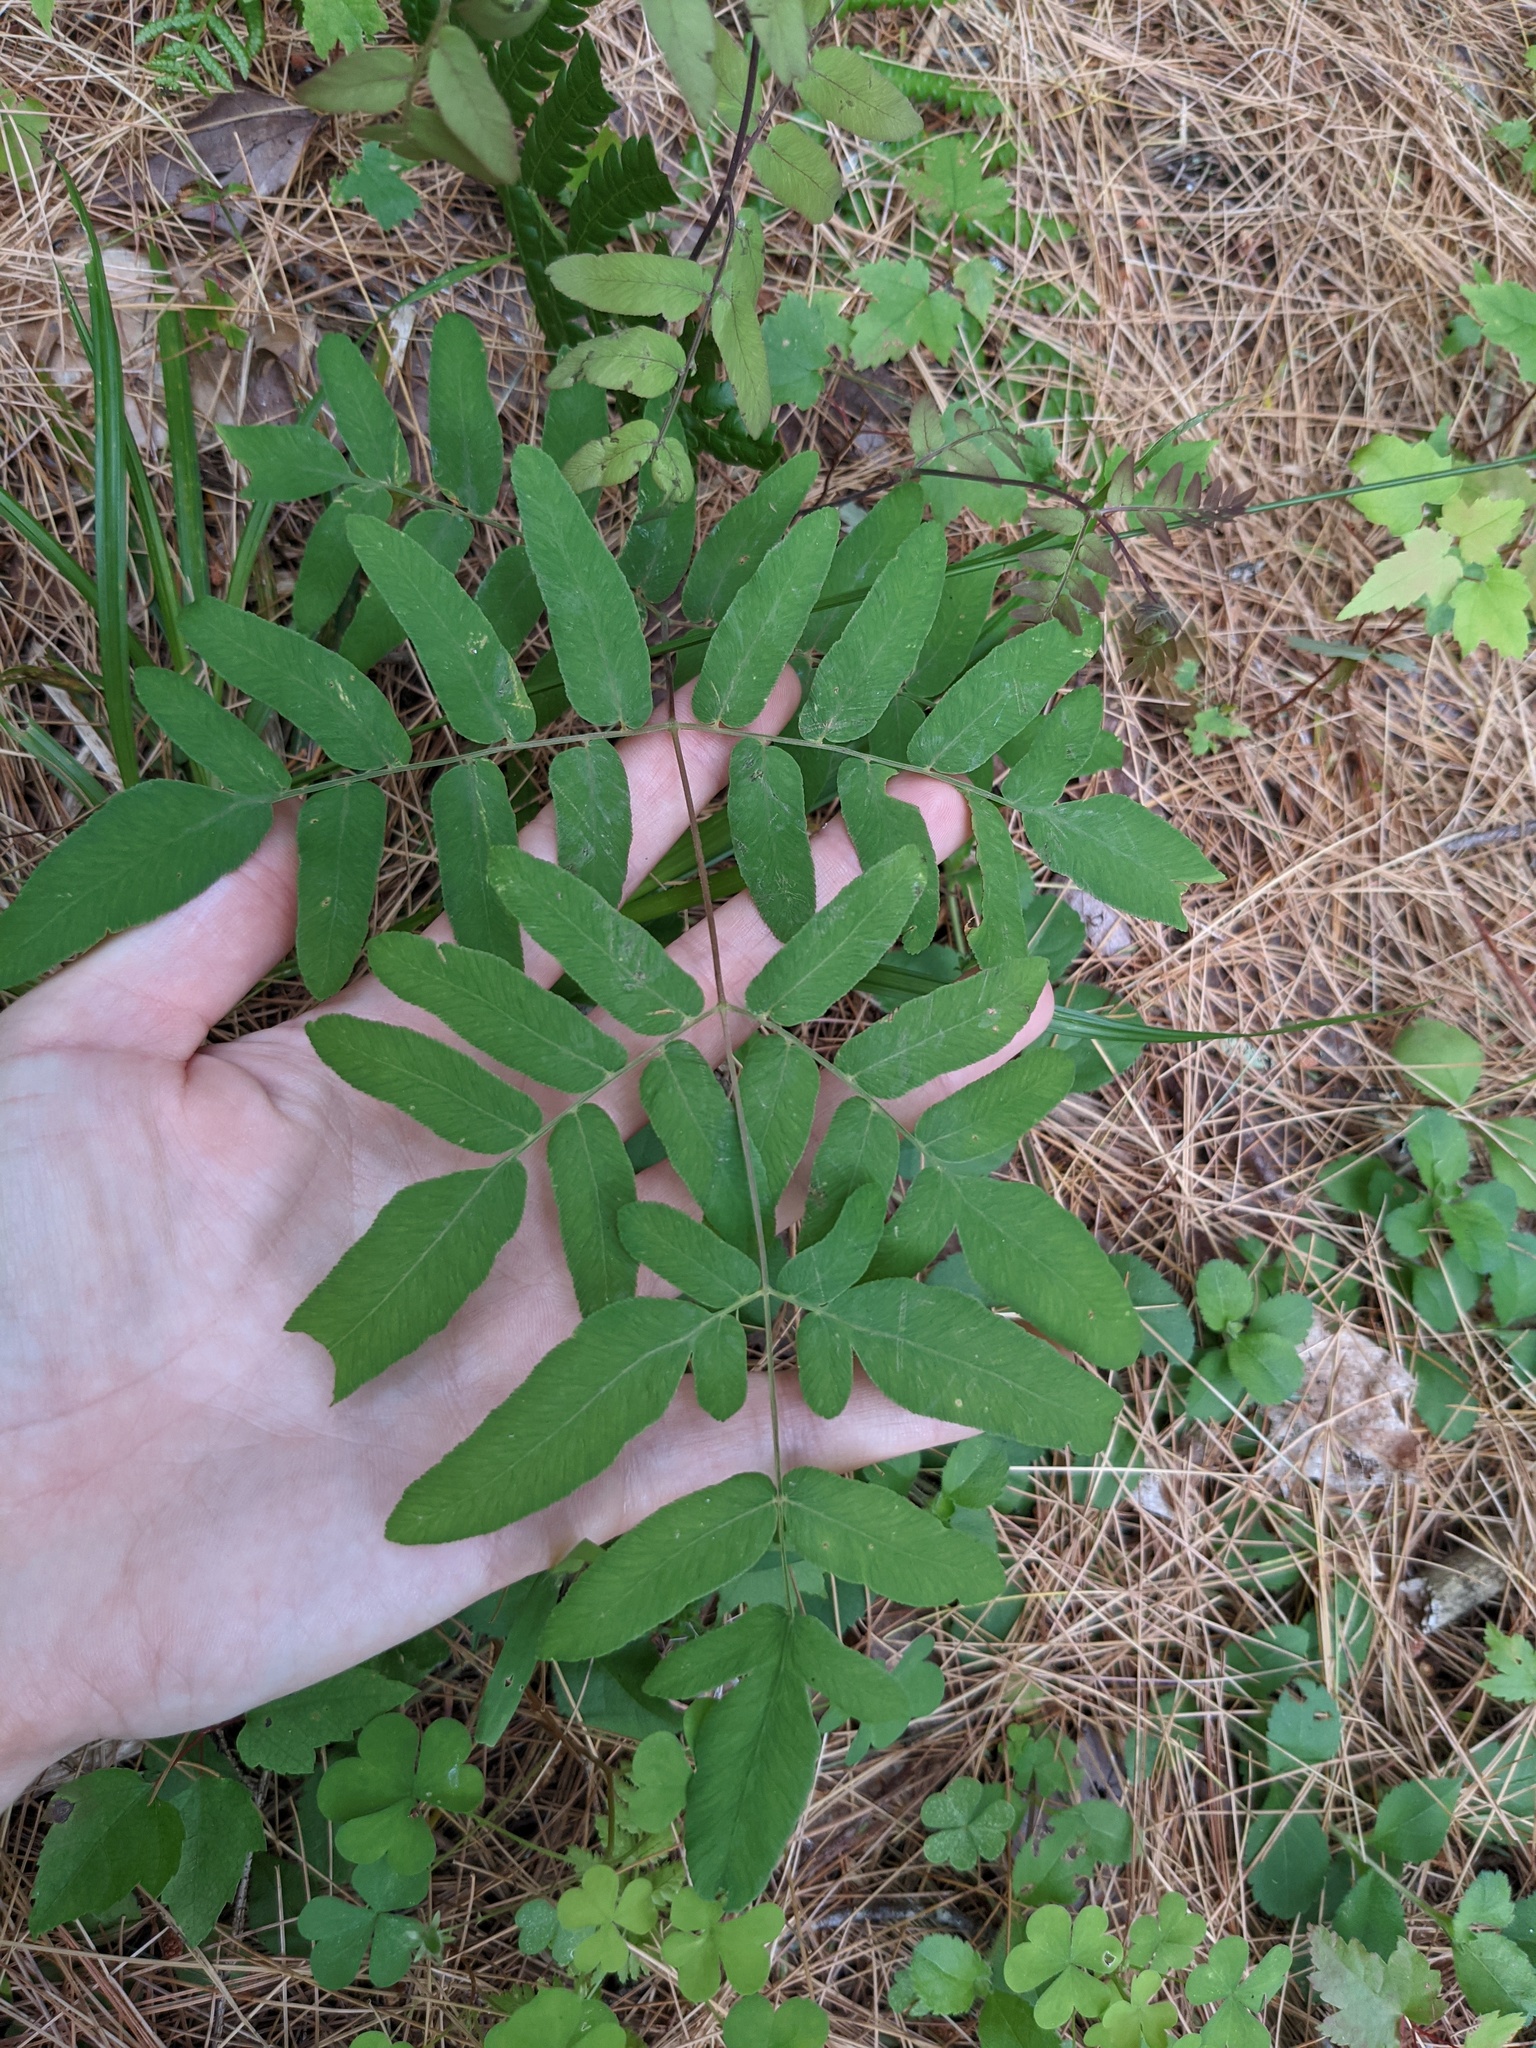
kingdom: Plantae
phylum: Tracheophyta
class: Polypodiopsida
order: Osmundales
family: Osmundaceae
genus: Osmunda
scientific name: Osmunda spectabilis
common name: American royal fern
